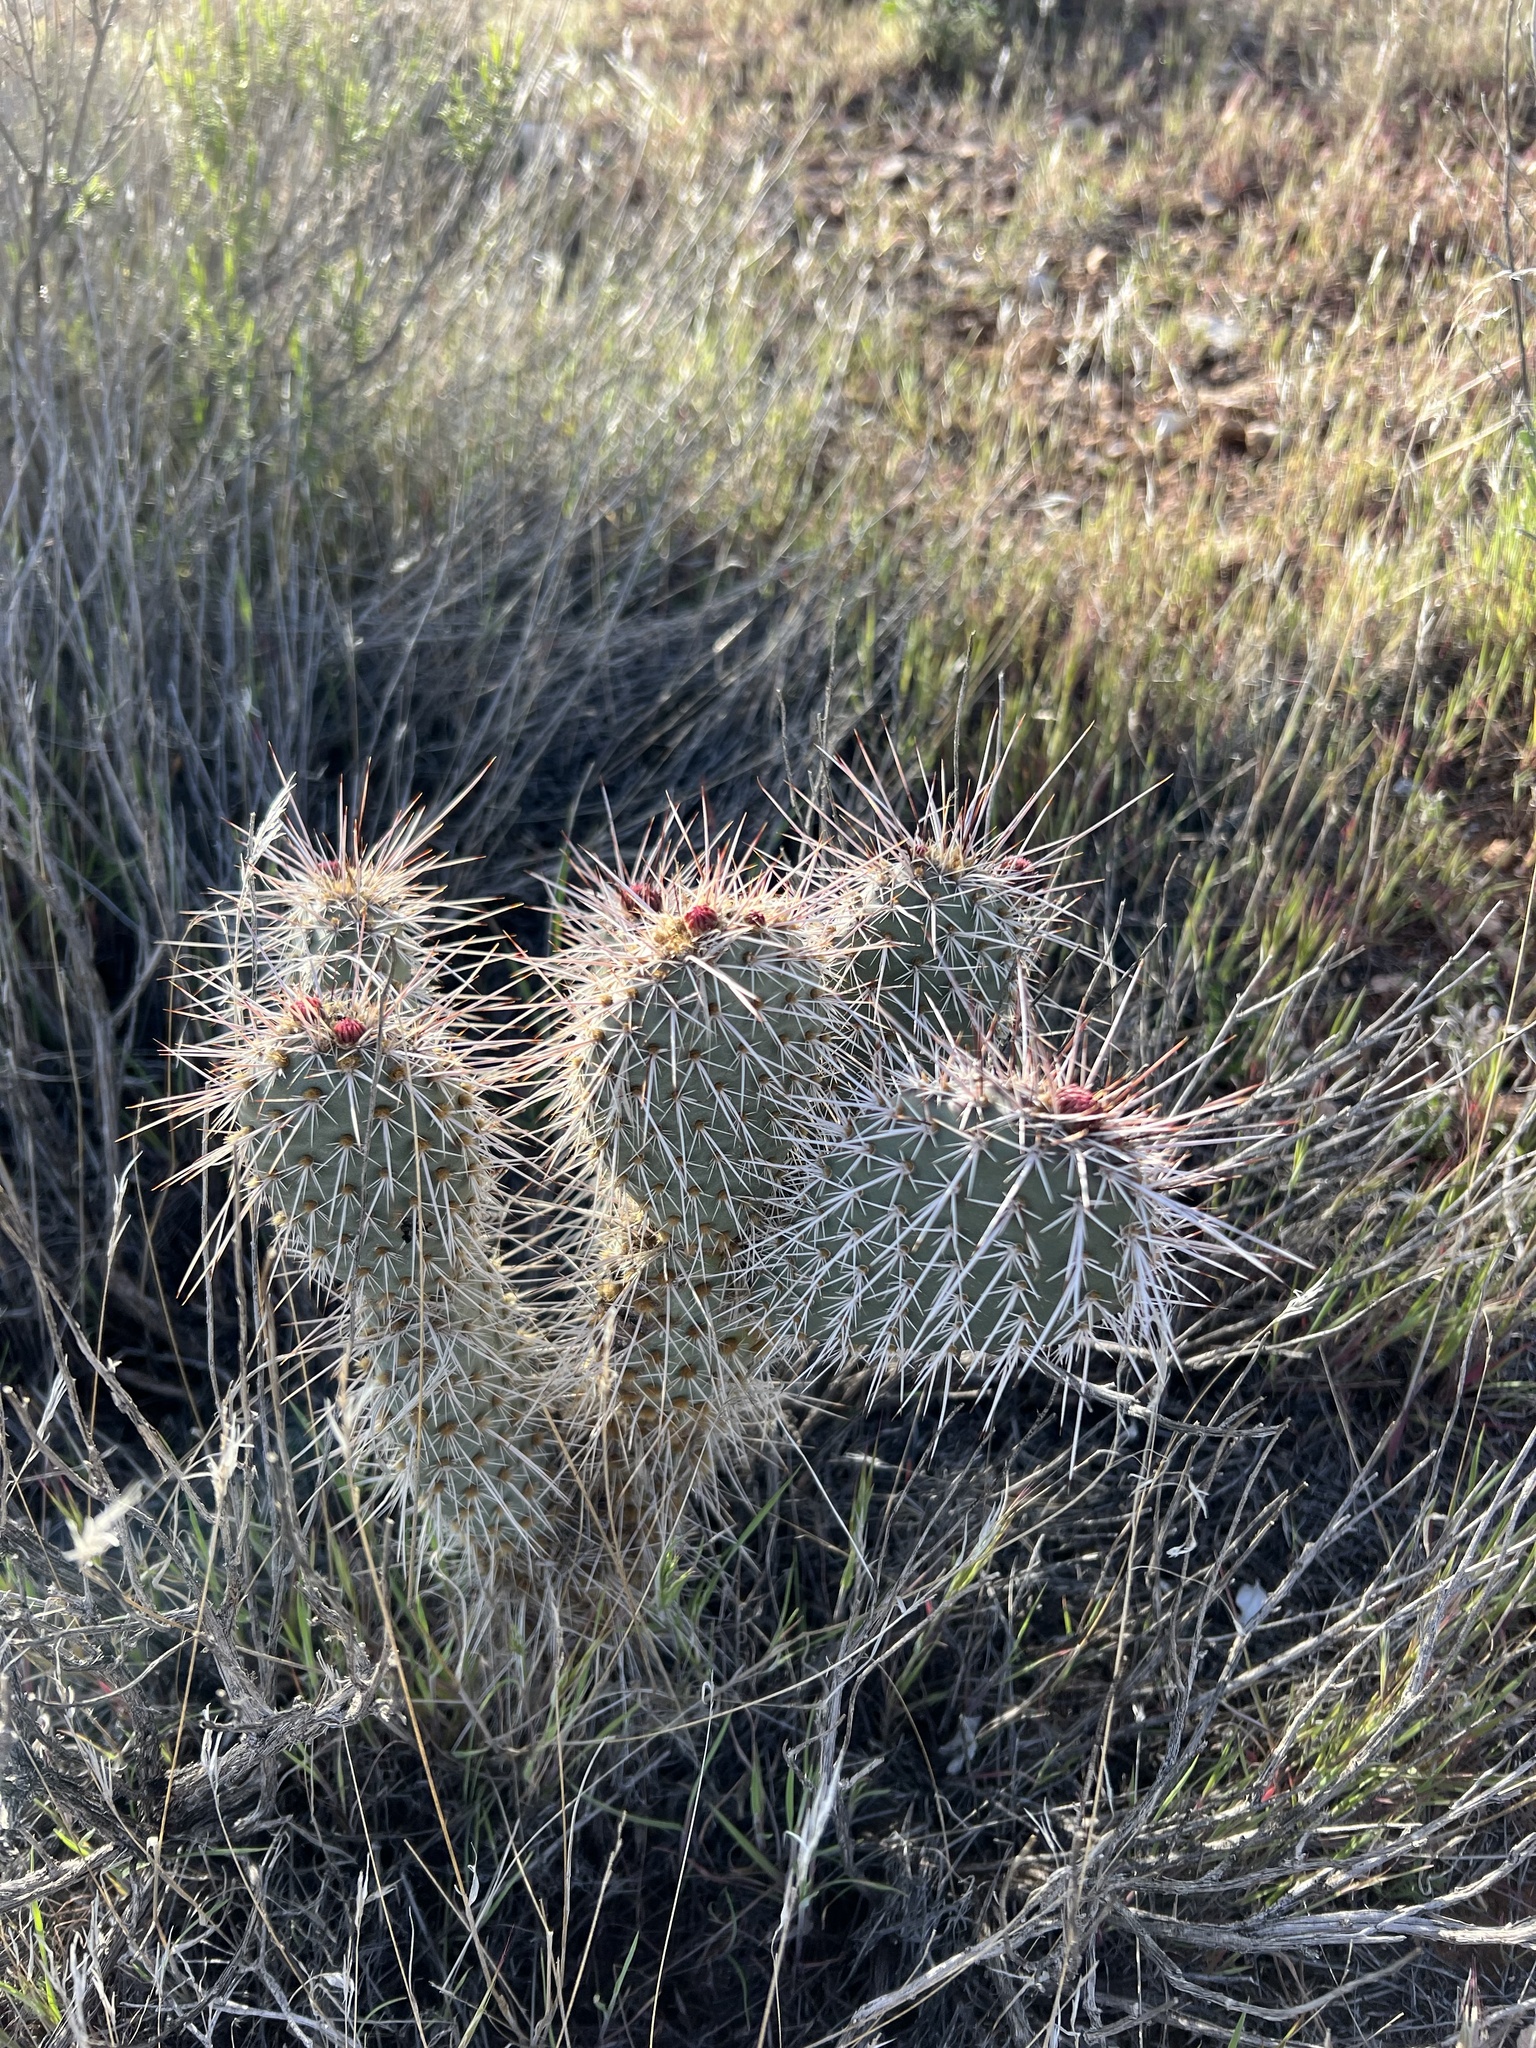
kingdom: Plantae
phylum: Tracheophyta
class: Magnoliopsida
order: Caryophyllales
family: Cactaceae
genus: Opuntia
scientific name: Opuntia polyacantha
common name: Plains prickly-pear
